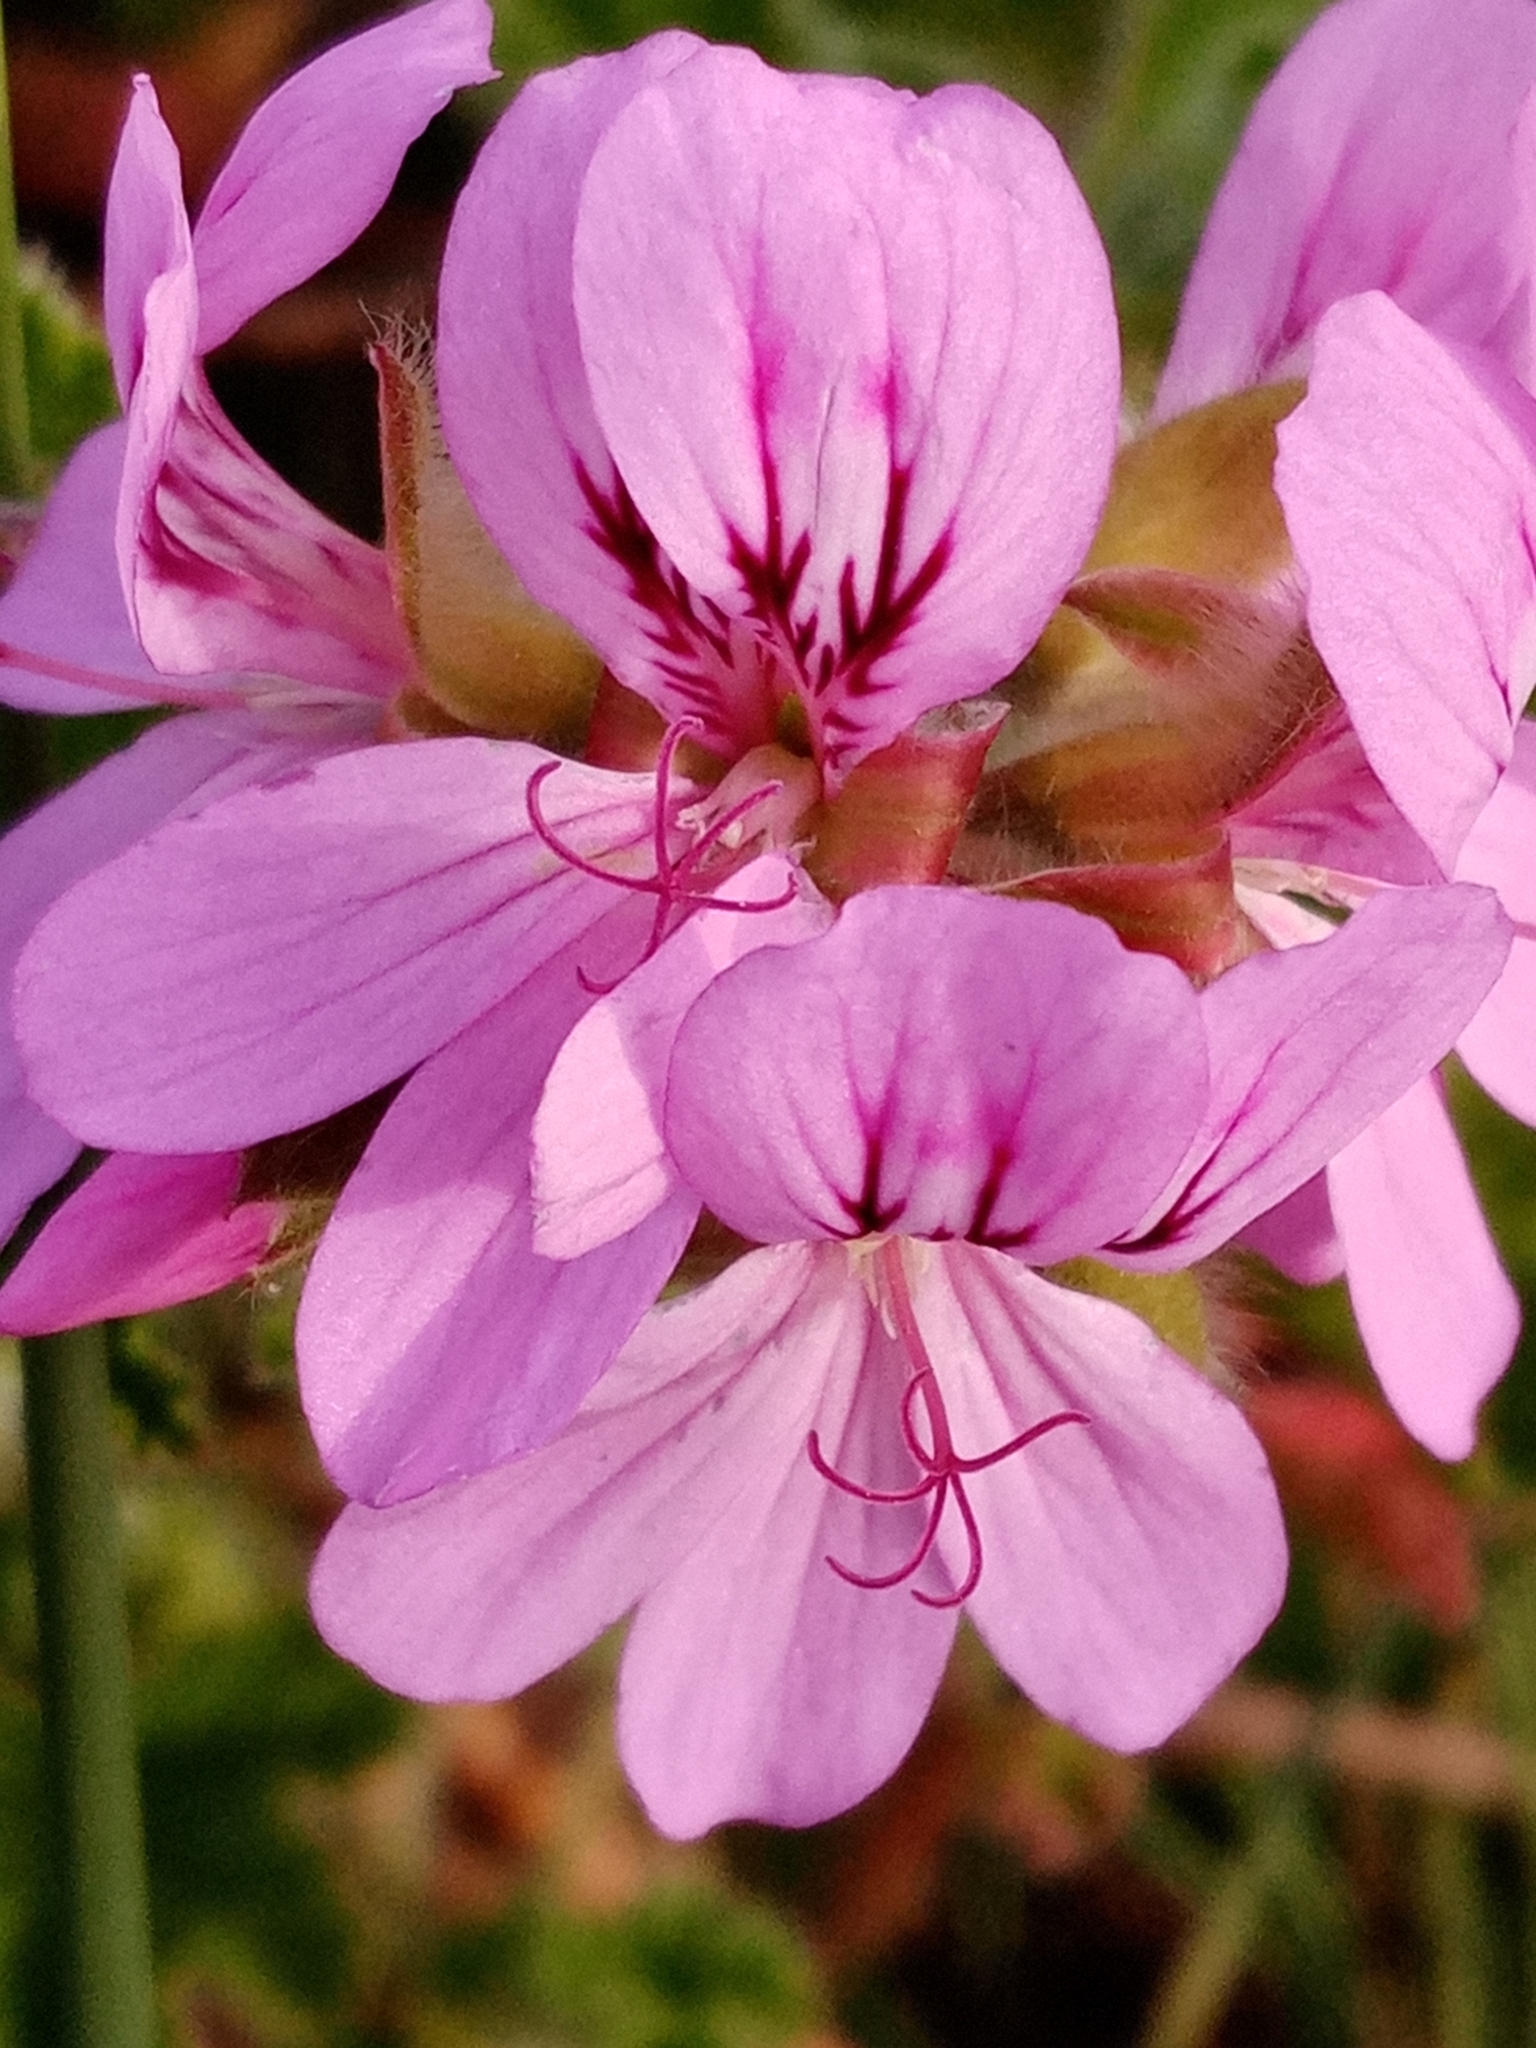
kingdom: Plantae
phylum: Tracheophyta
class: Magnoliopsida
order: Geraniales
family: Geraniaceae
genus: Pelargonium
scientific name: Pelargonium capitatum
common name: Rose scented geranium
